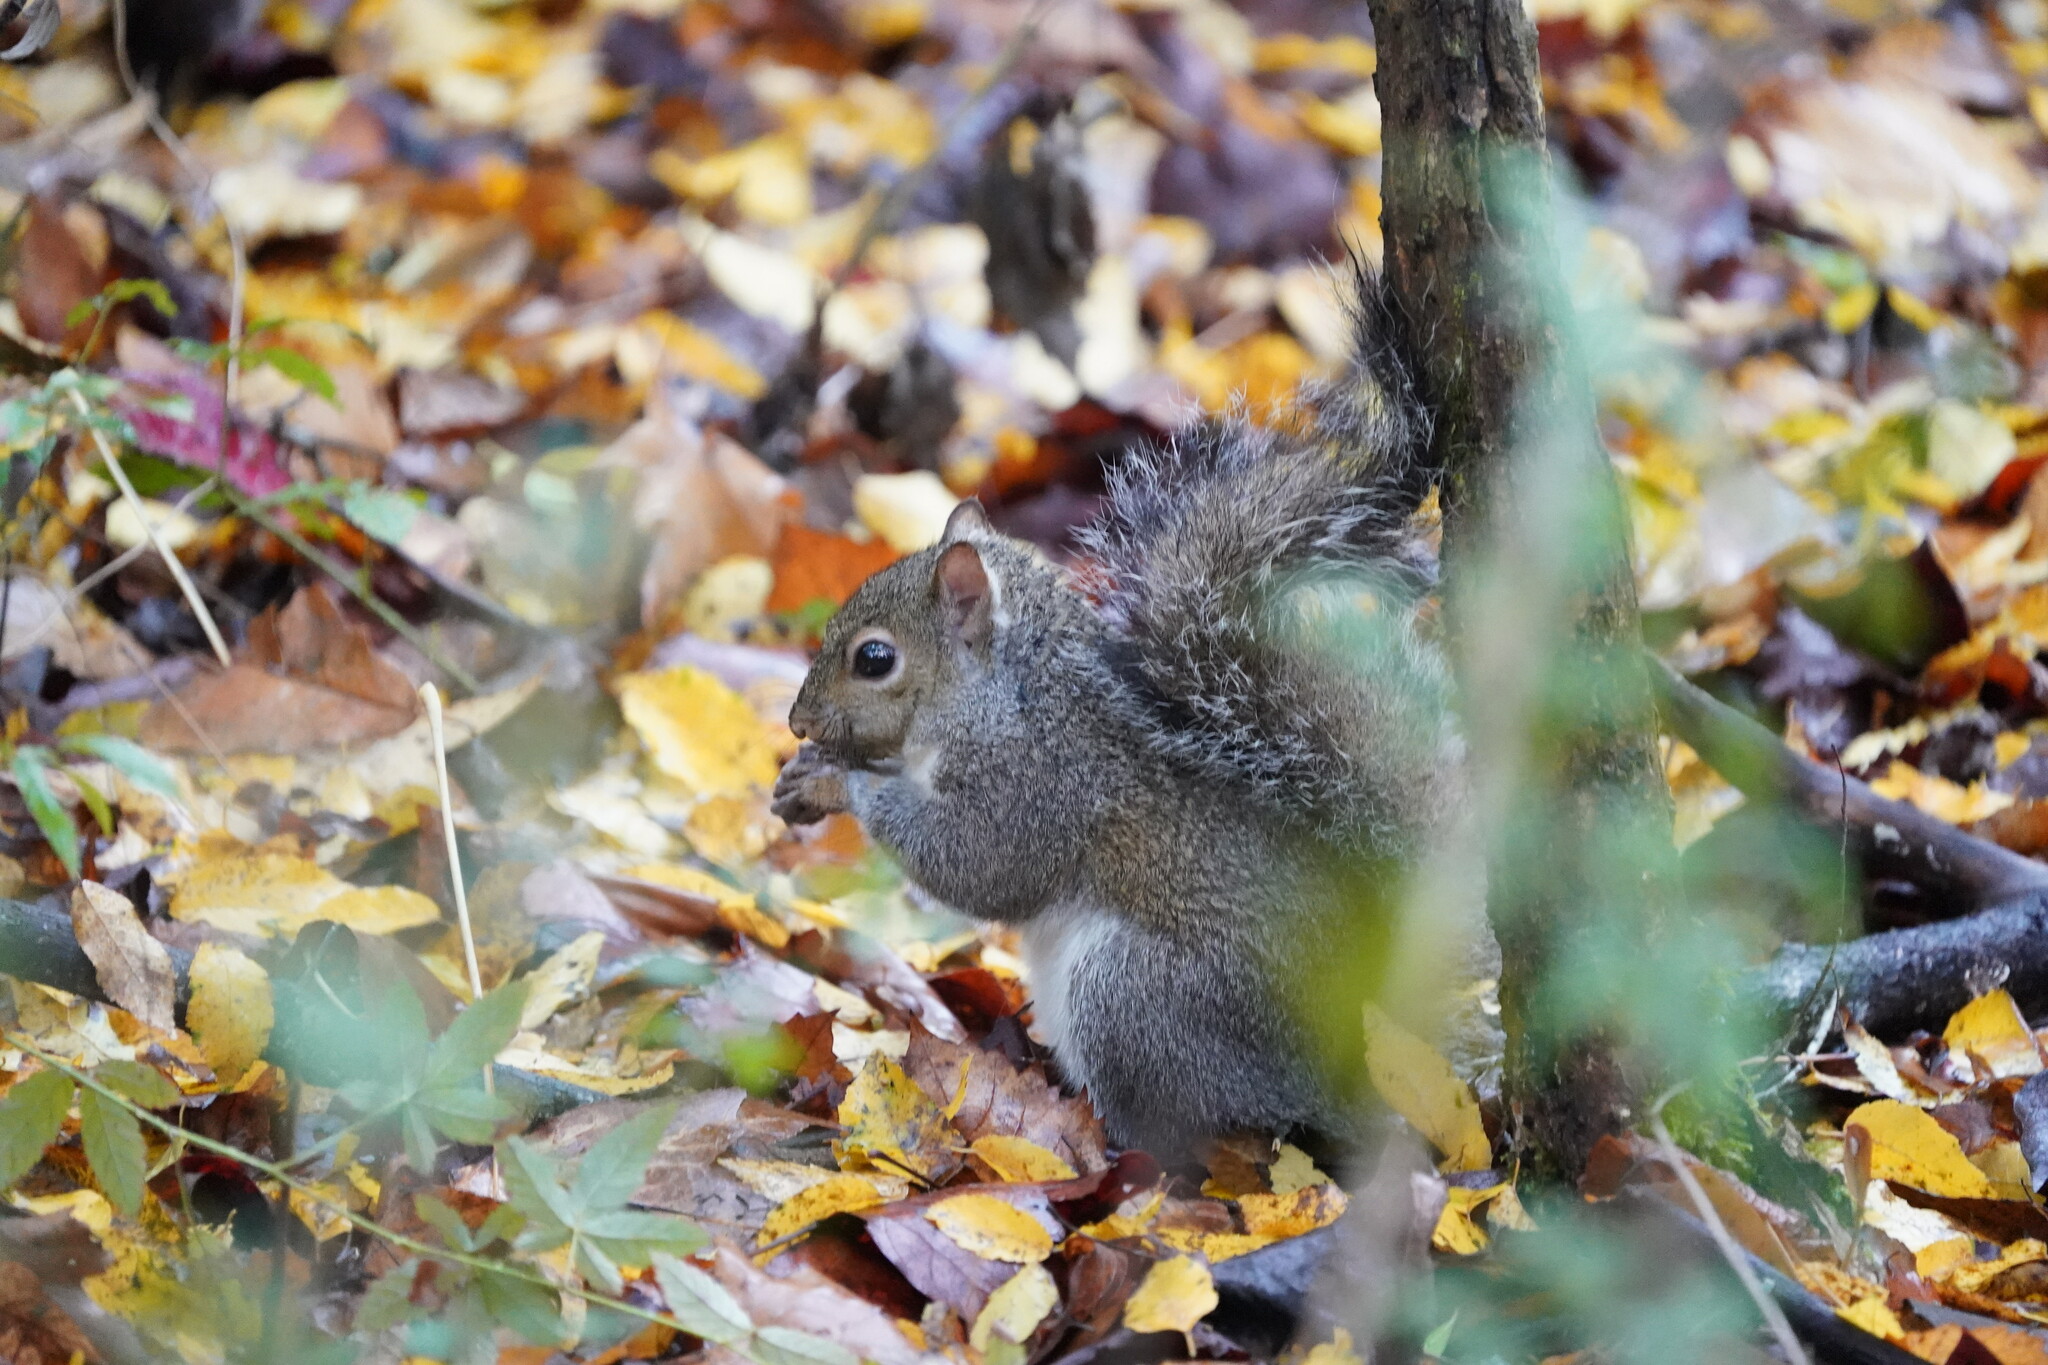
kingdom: Animalia
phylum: Chordata
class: Mammalia
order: Rodentia
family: Sciuridae
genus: Sciurus
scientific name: Sciurus carolinensis
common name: Eastern gray squirrel
